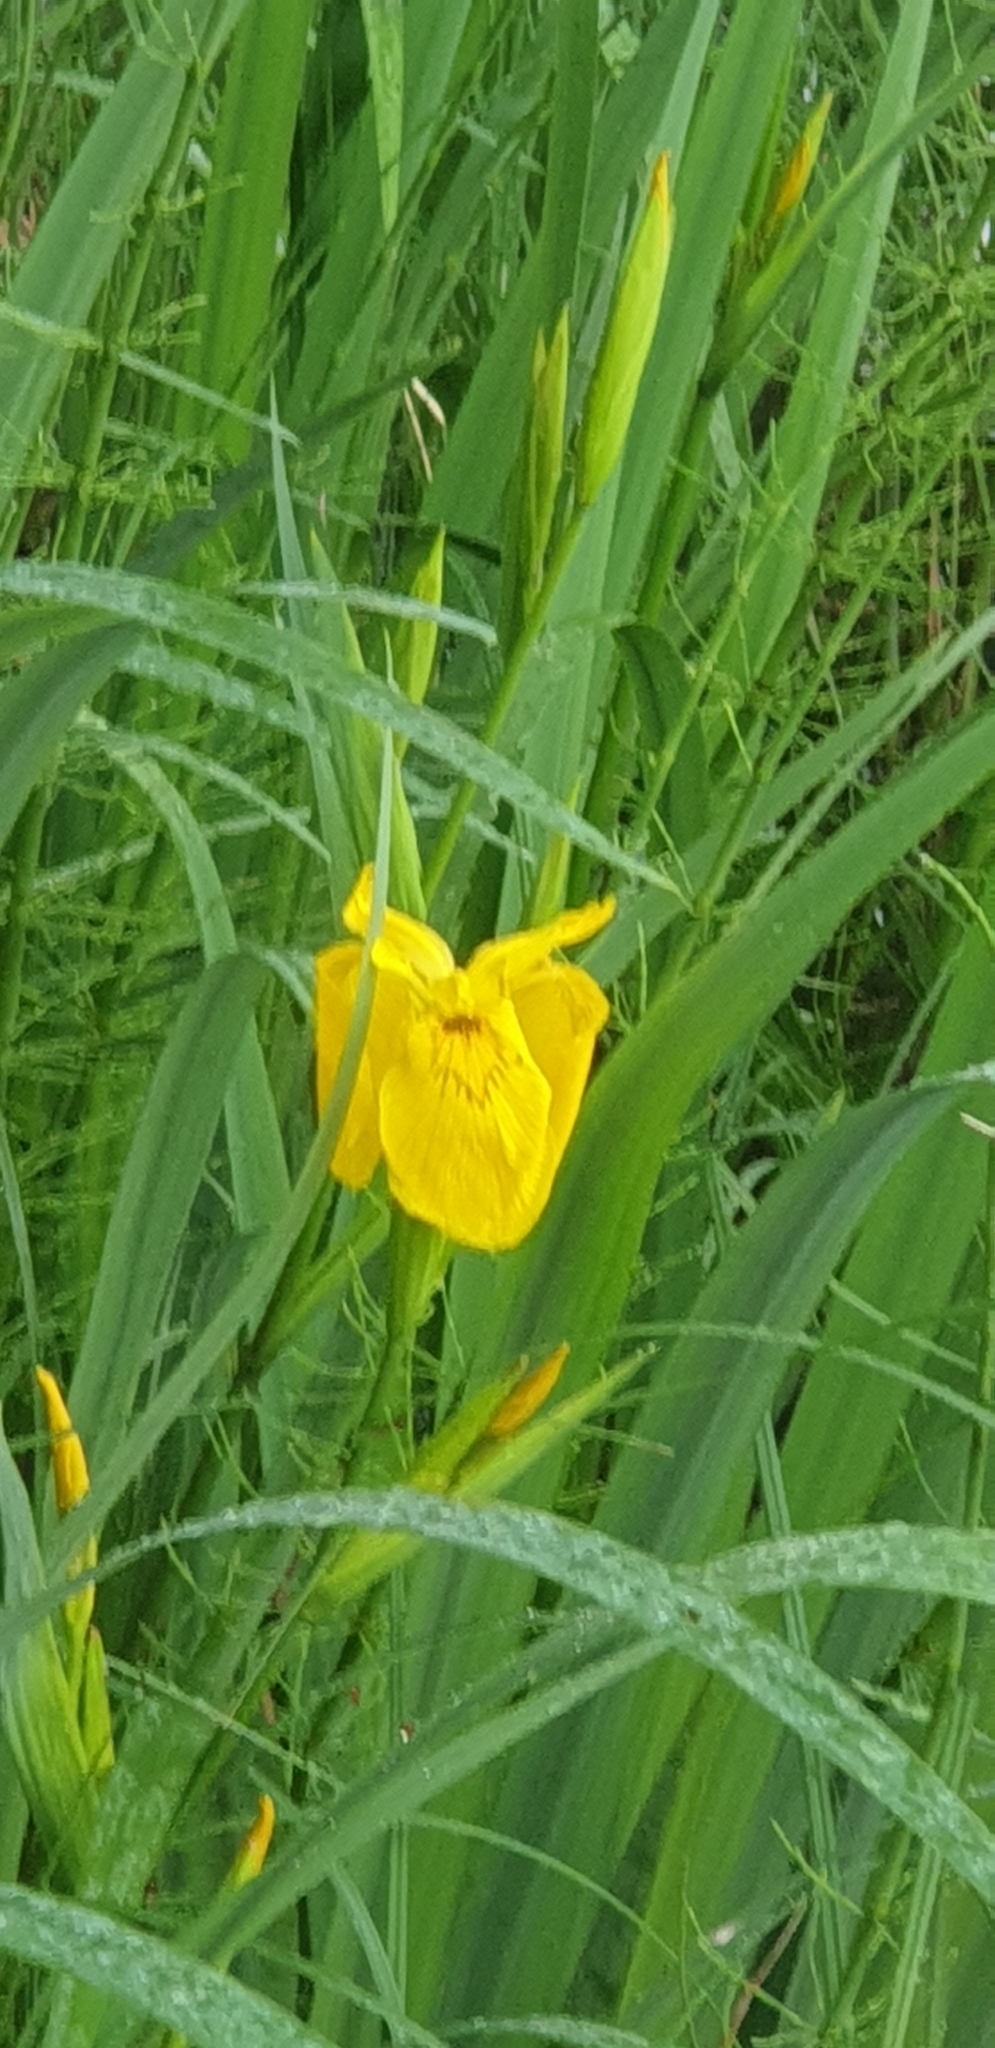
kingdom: Plantae
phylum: Tracheophyta
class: Liliopsida
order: Asparagales
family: Iridaceae
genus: Iris
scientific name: Iris pseudacorus
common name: Yellow flag
